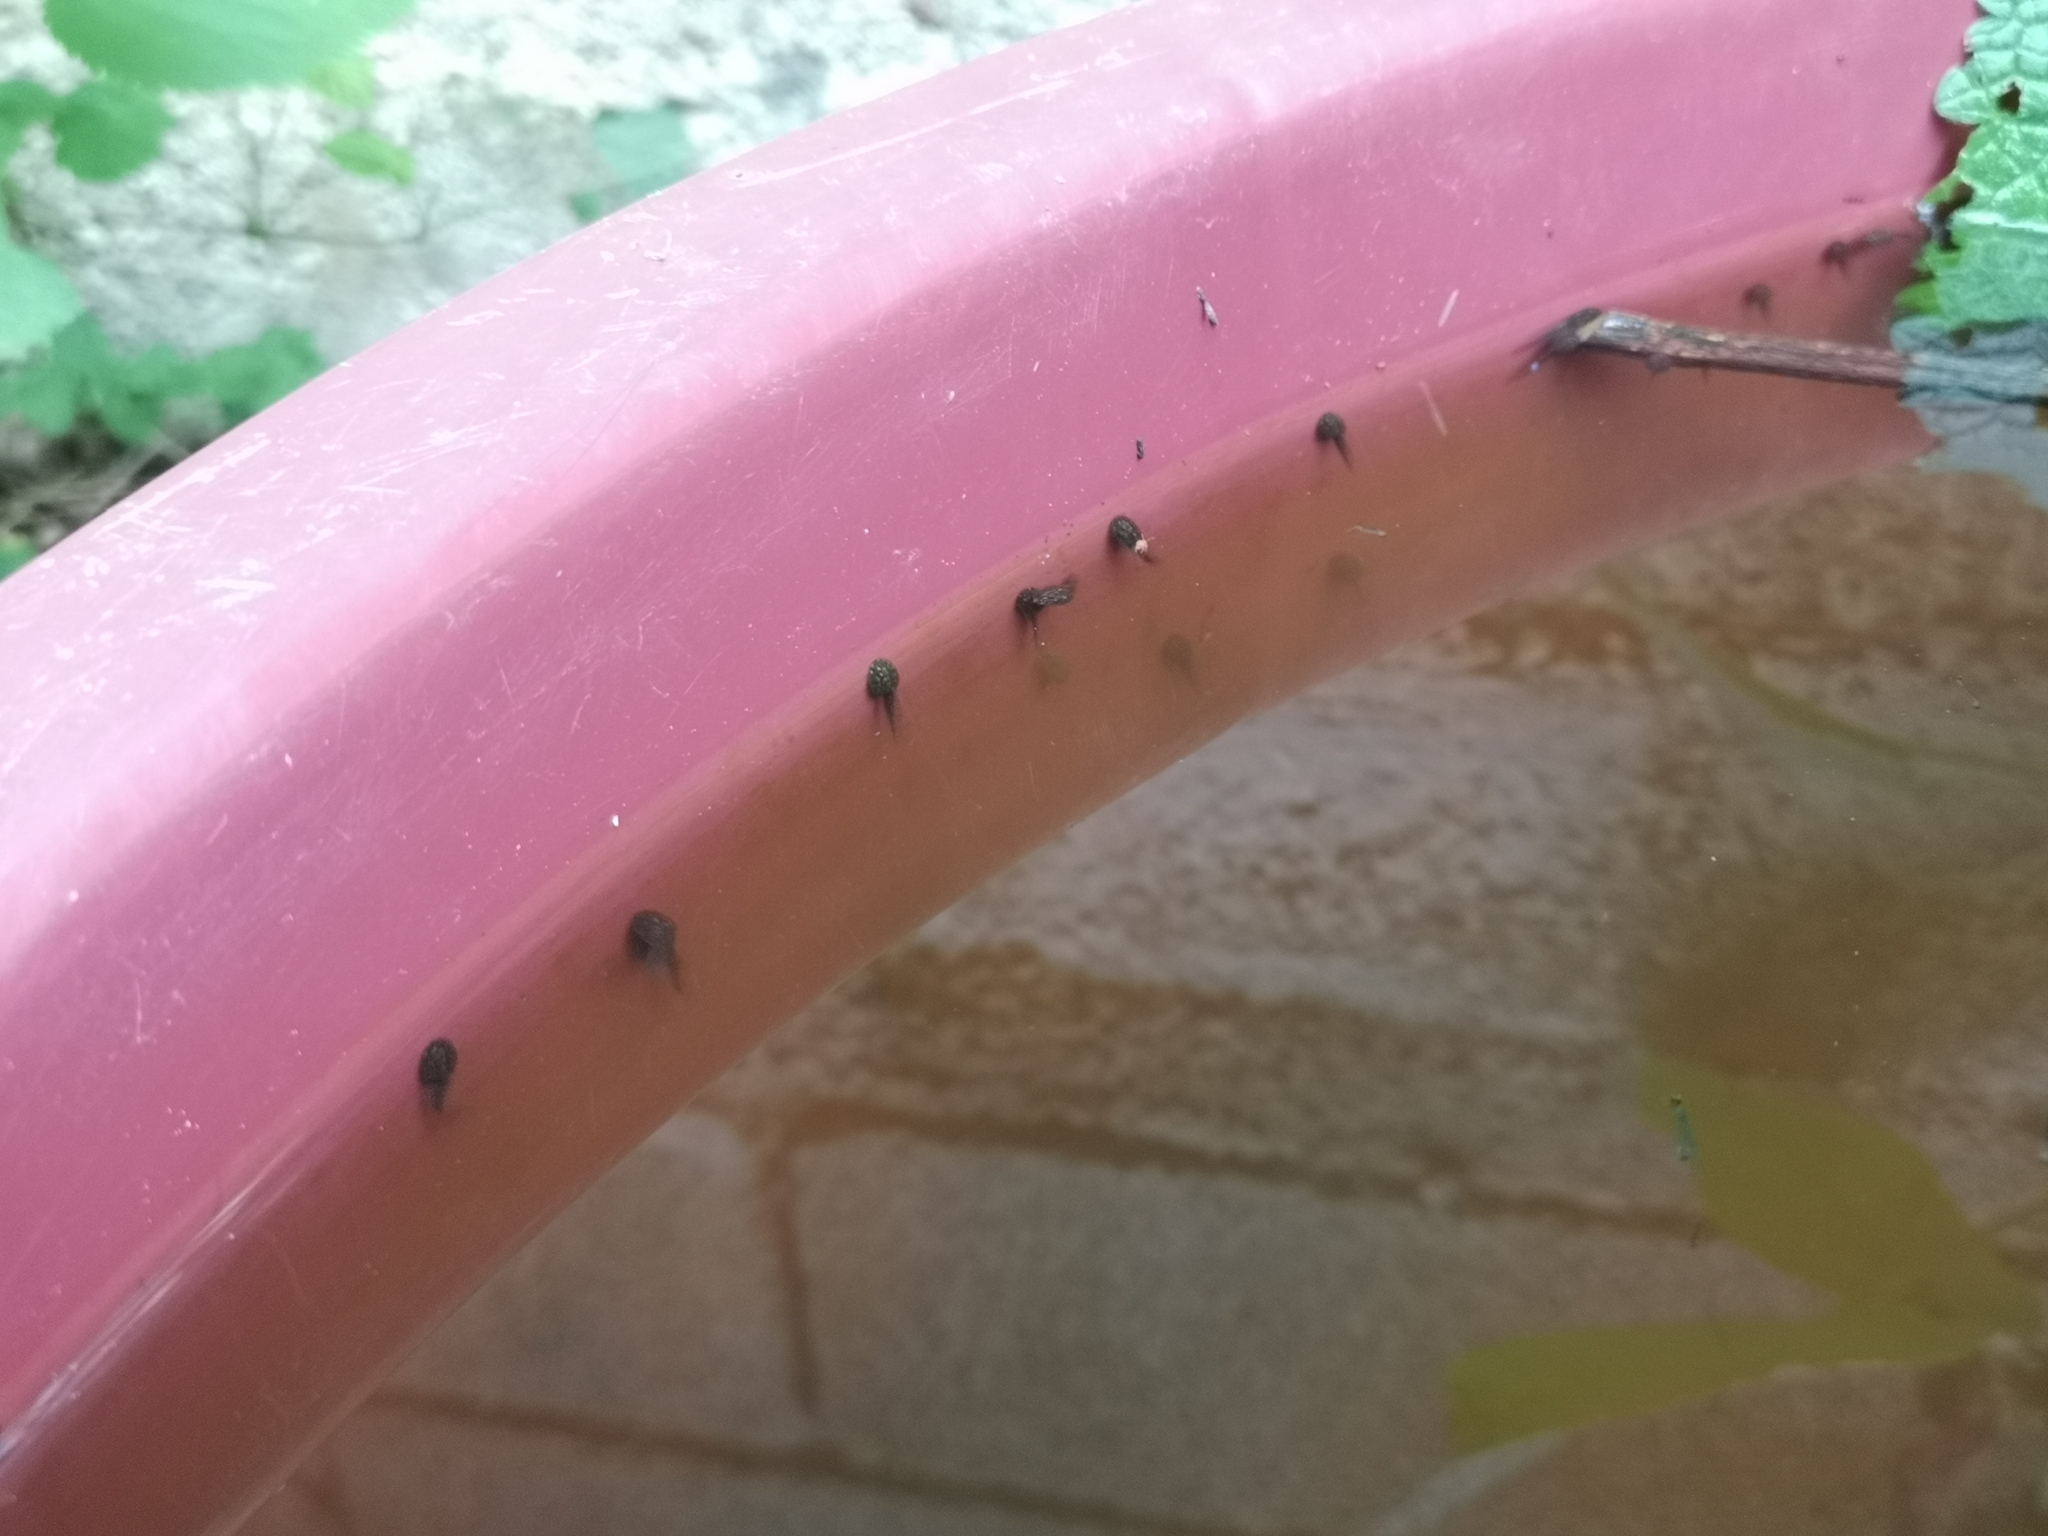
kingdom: Animalia
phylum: Chordata
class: Amphibia
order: Anura
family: Ranidae
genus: Rana
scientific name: Rana latastei
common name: Italian agile frog
